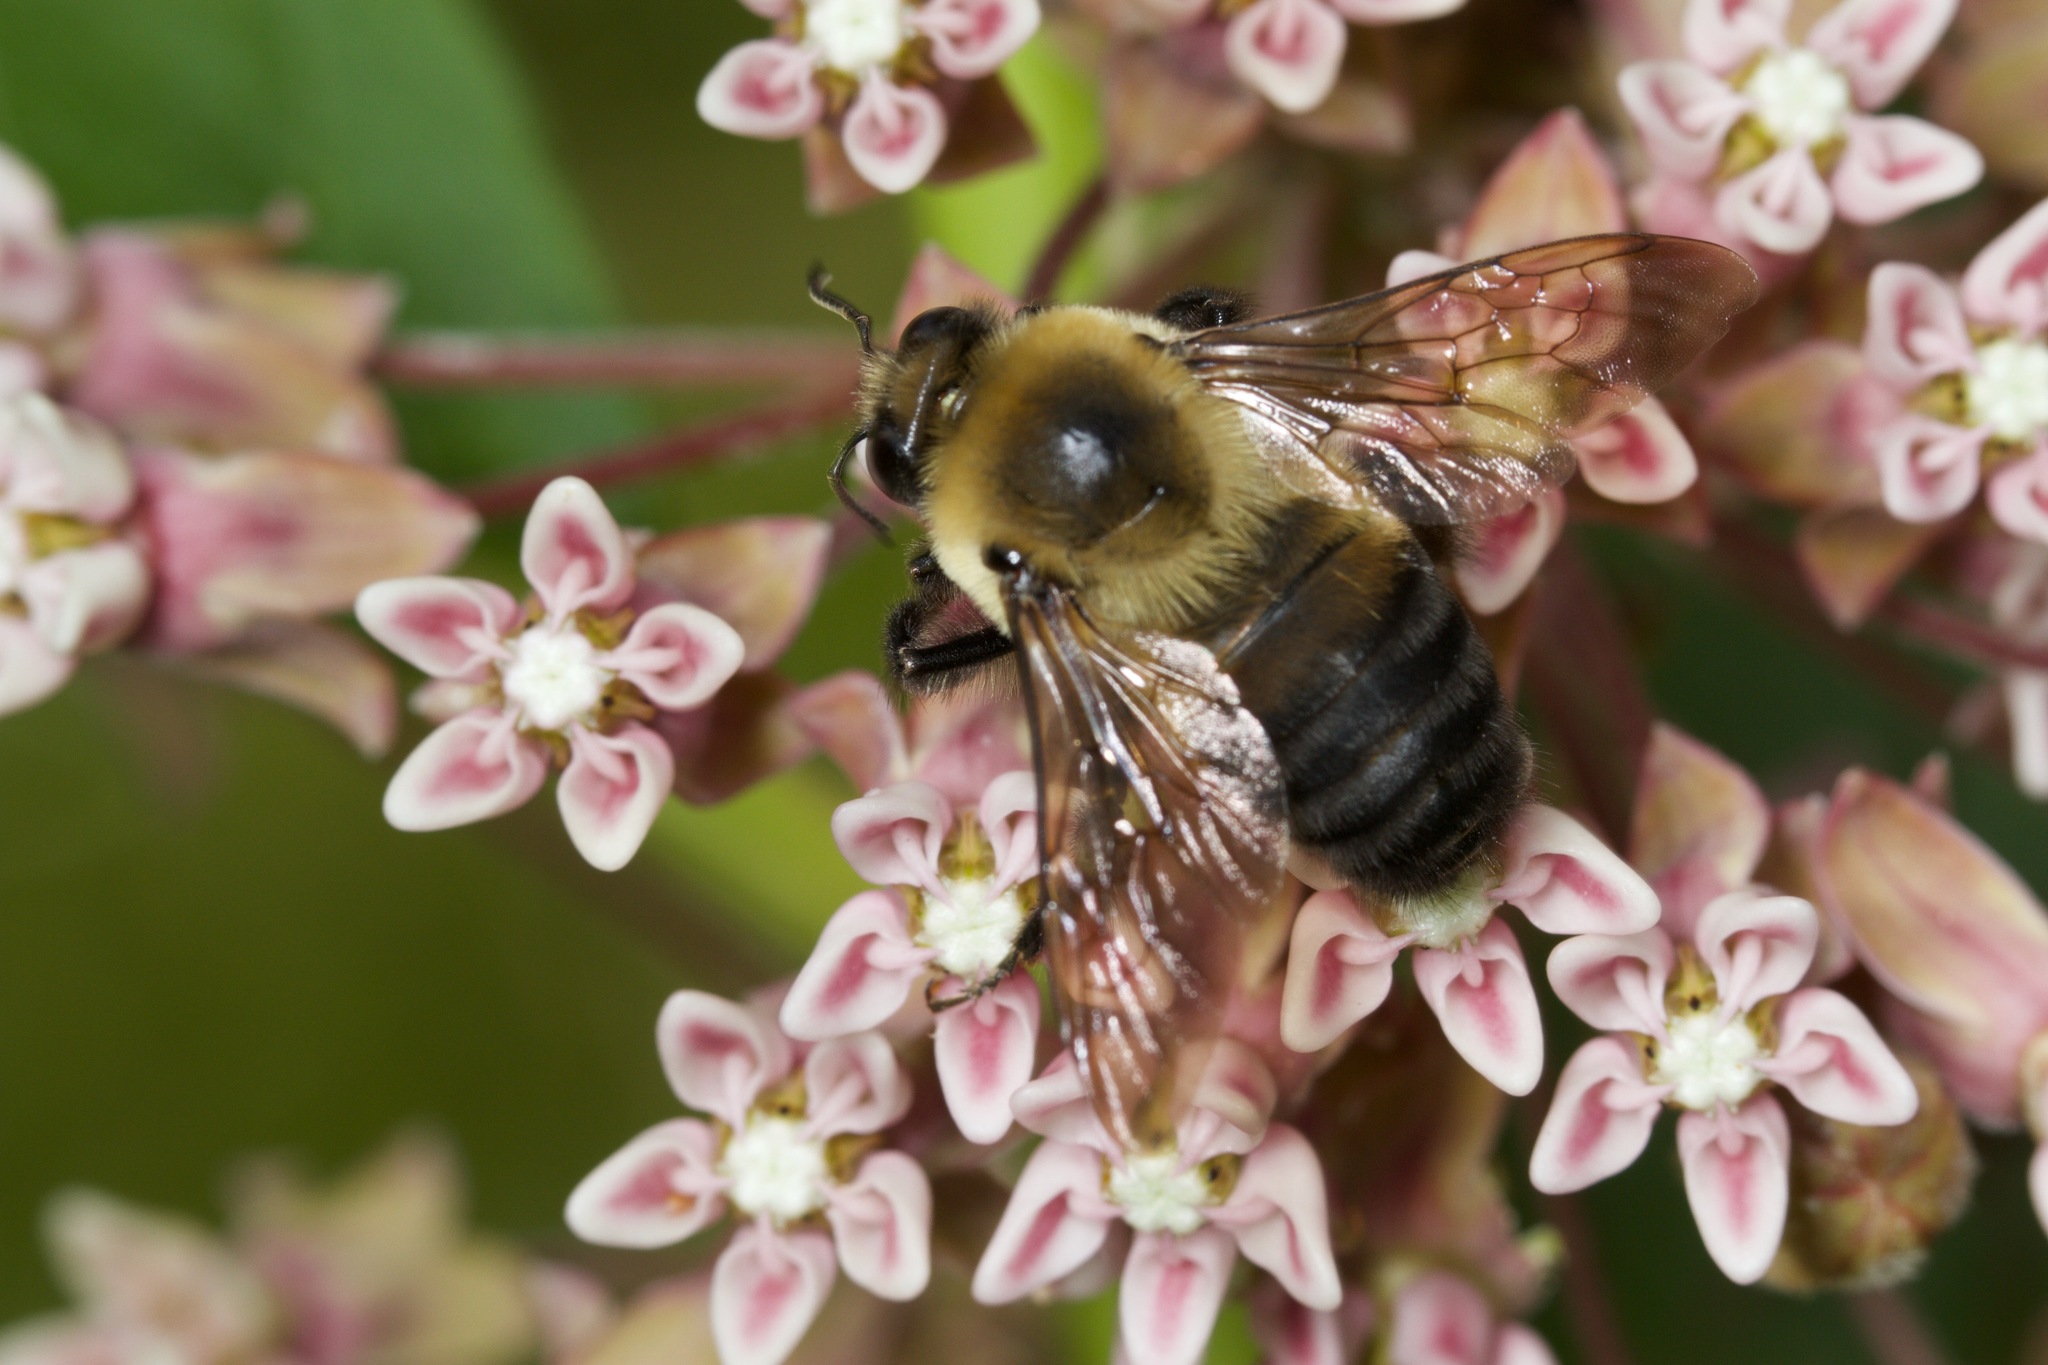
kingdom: Animalia
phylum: Arthropoda
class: Insecta
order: Hymenoptera
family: Apidae
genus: Bombus
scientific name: Bombus griseocollis
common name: Brown-belted bumble bee
